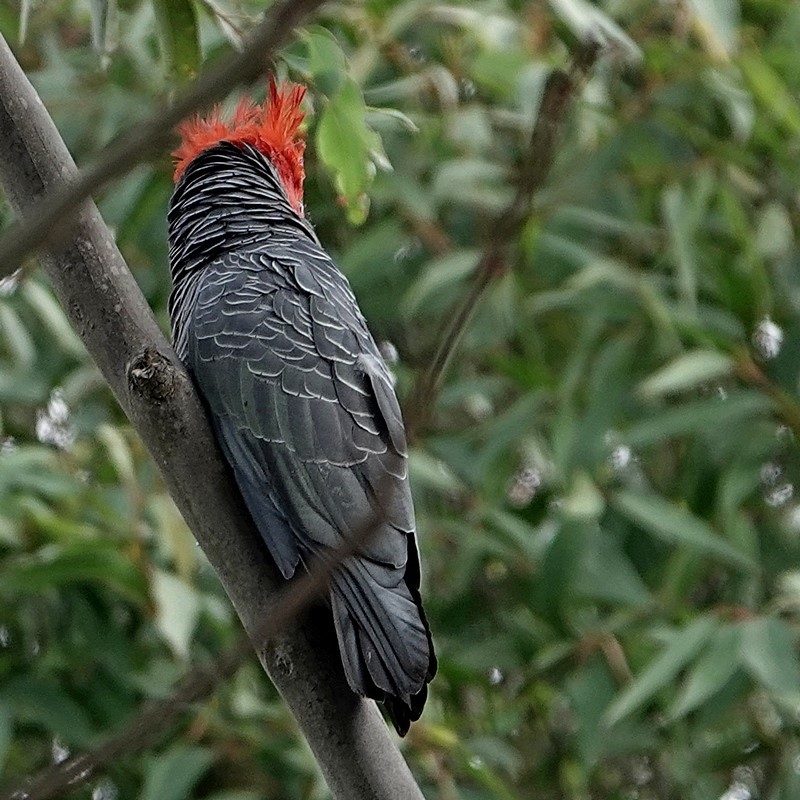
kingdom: Animalia
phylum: Chordata
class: Aves
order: Psittaciformes
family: Psittacidae
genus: Callocephalon
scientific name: Callocephalon fimbriatum
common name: Gang-gang cockatoo
